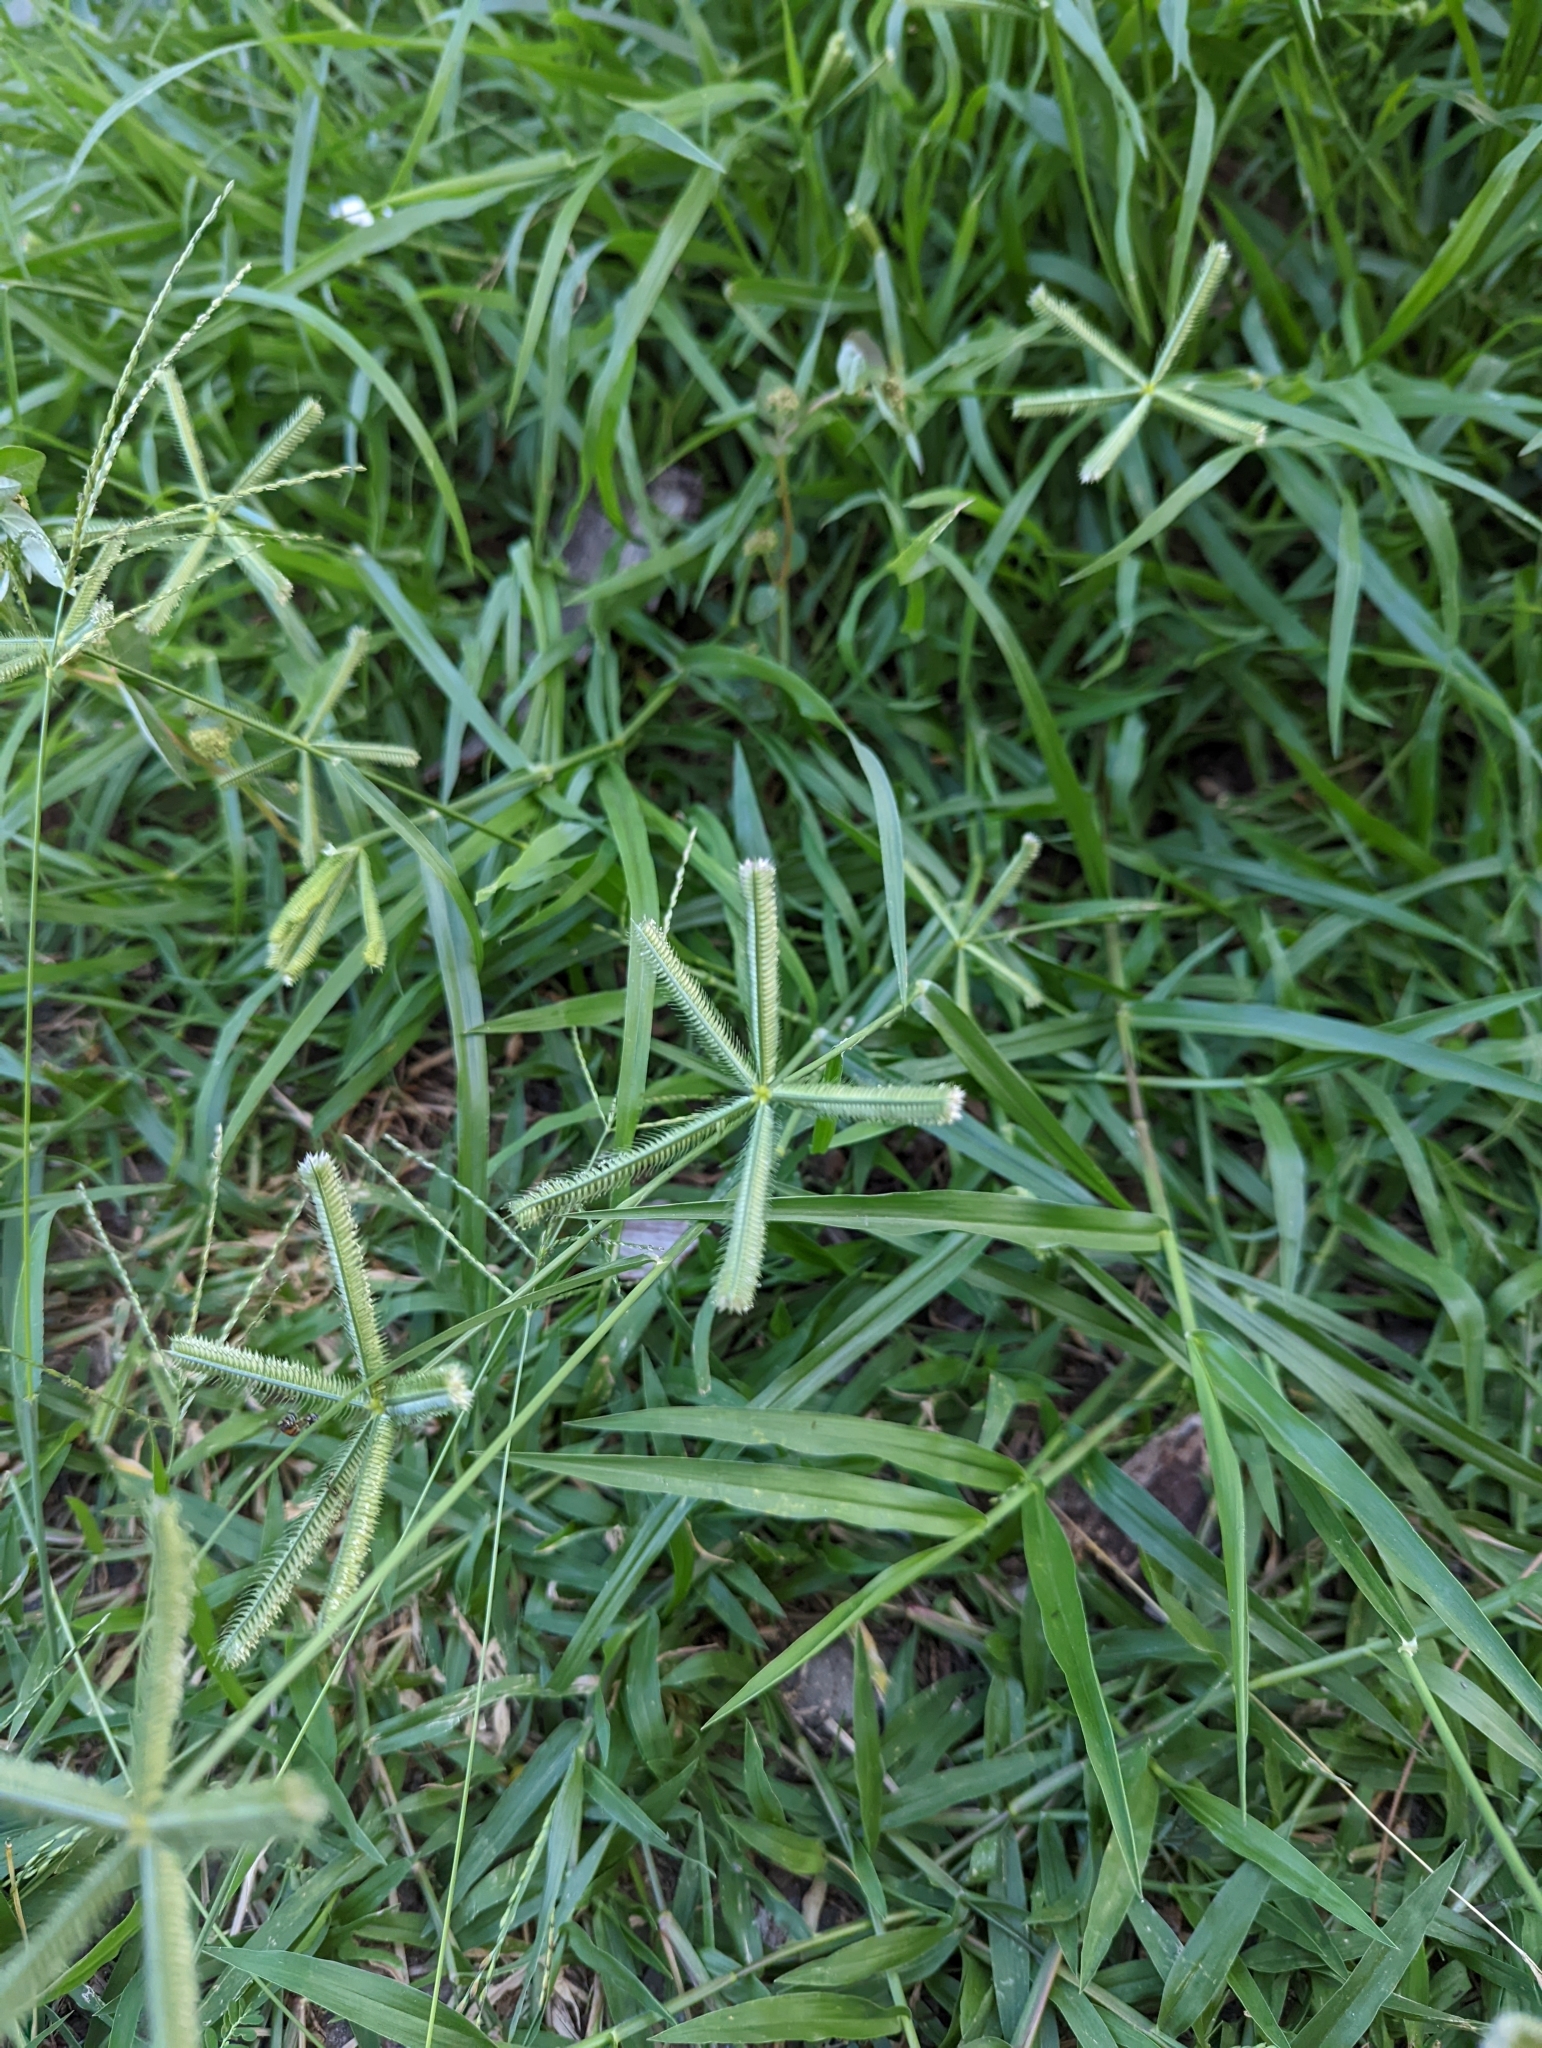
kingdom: Plantae
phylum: Tracheophyta
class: Liliopsida
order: Poales
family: Poaceae
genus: Dactyloctenium
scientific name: Dactyloctenium aegyptium
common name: Egyptian grass
